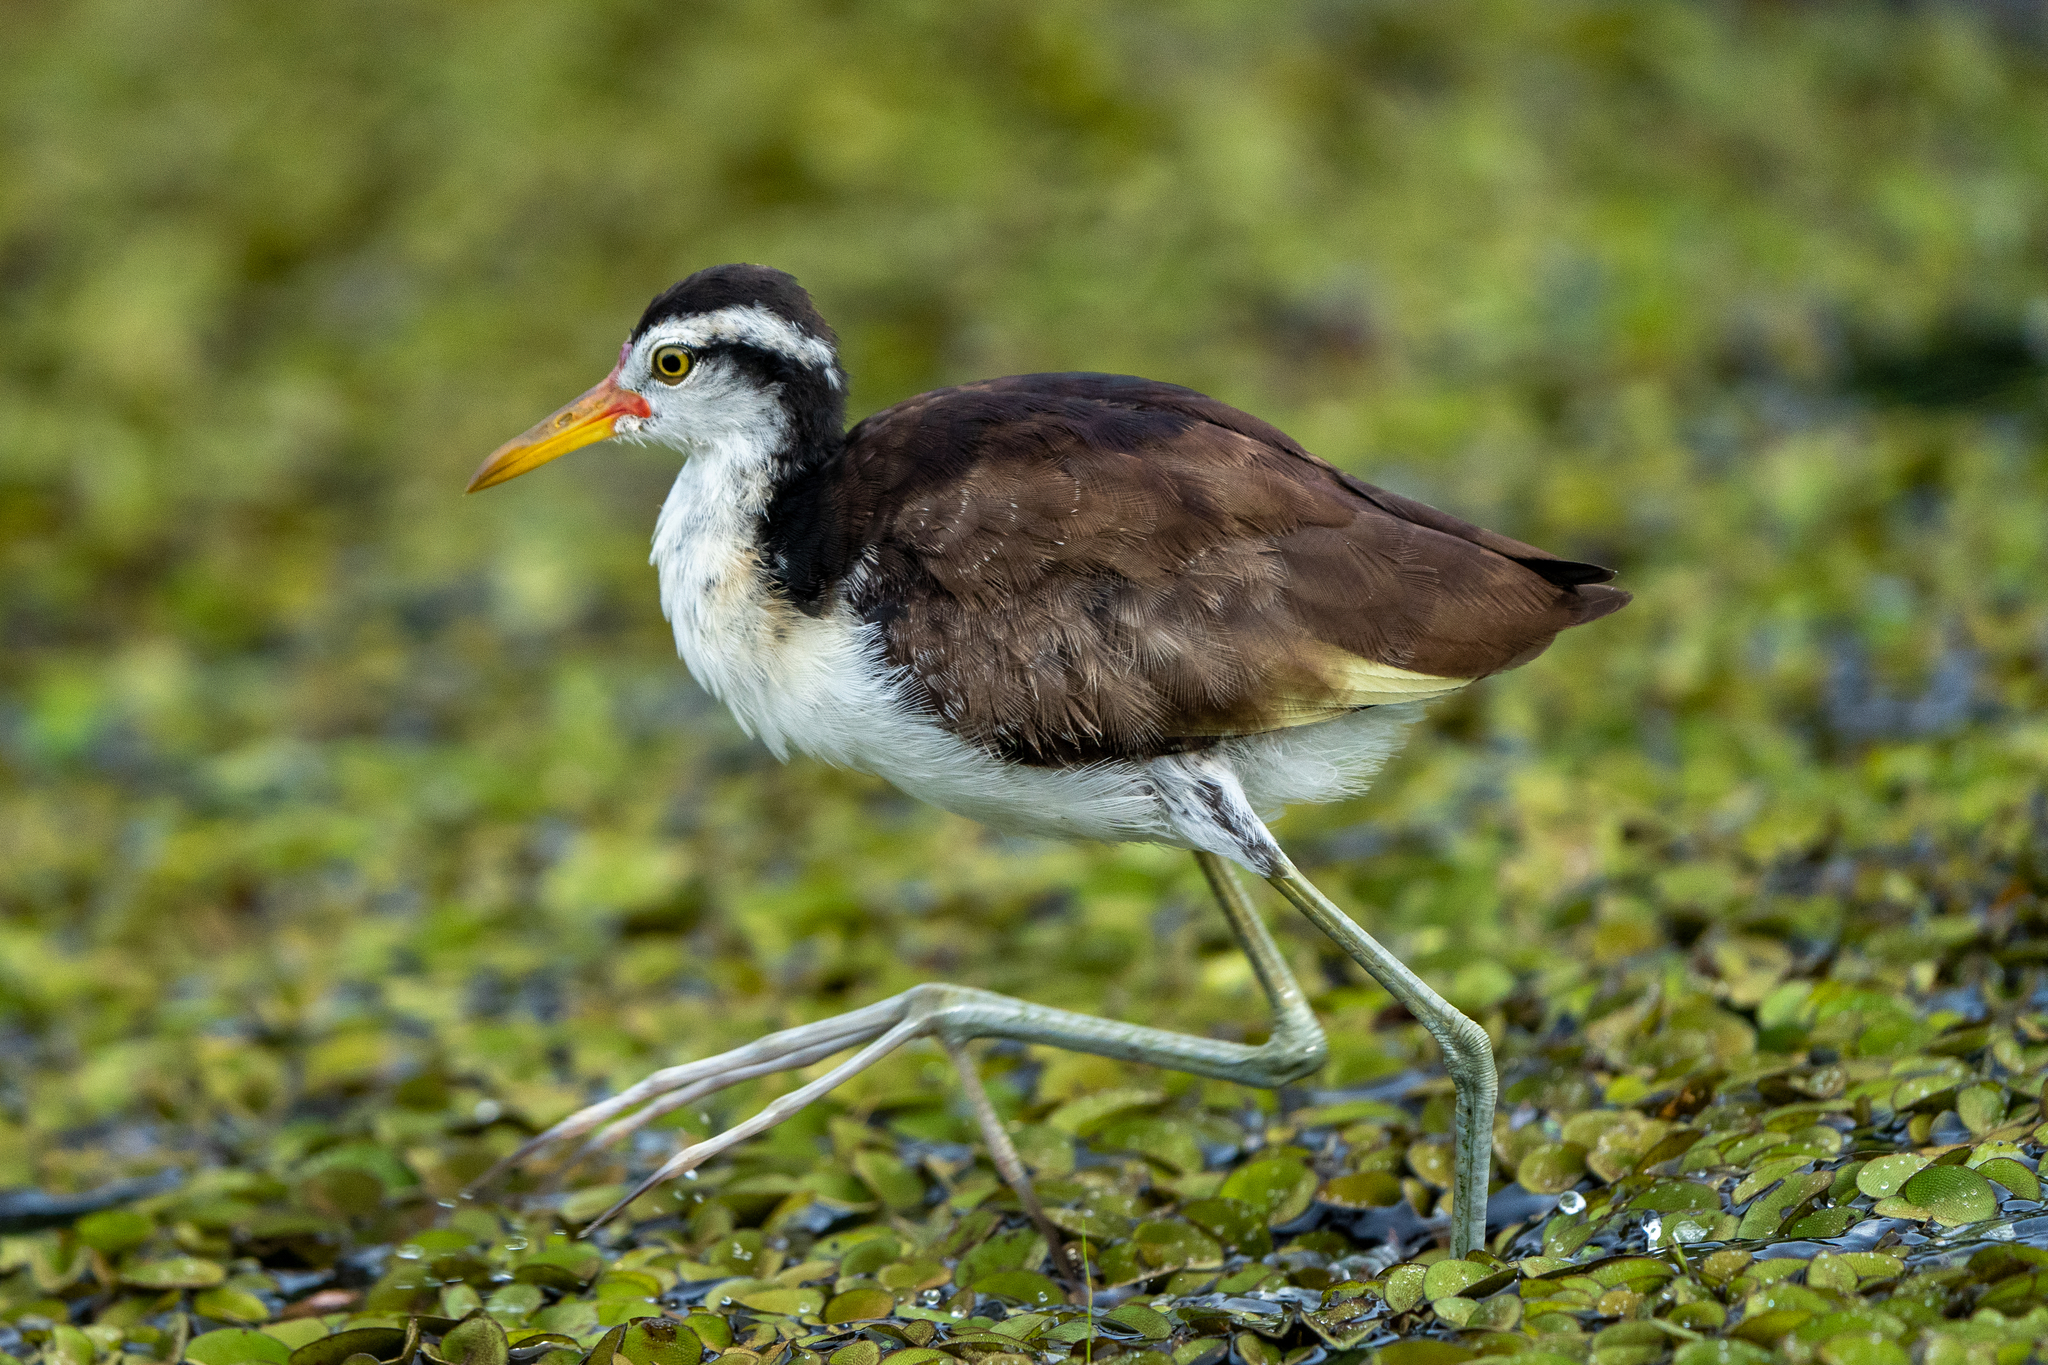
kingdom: Animalia
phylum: Chordata
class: Aves
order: Charadriiformes
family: Jacanidae
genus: Jacana
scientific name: Jacana jacana
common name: Wattled jacana
